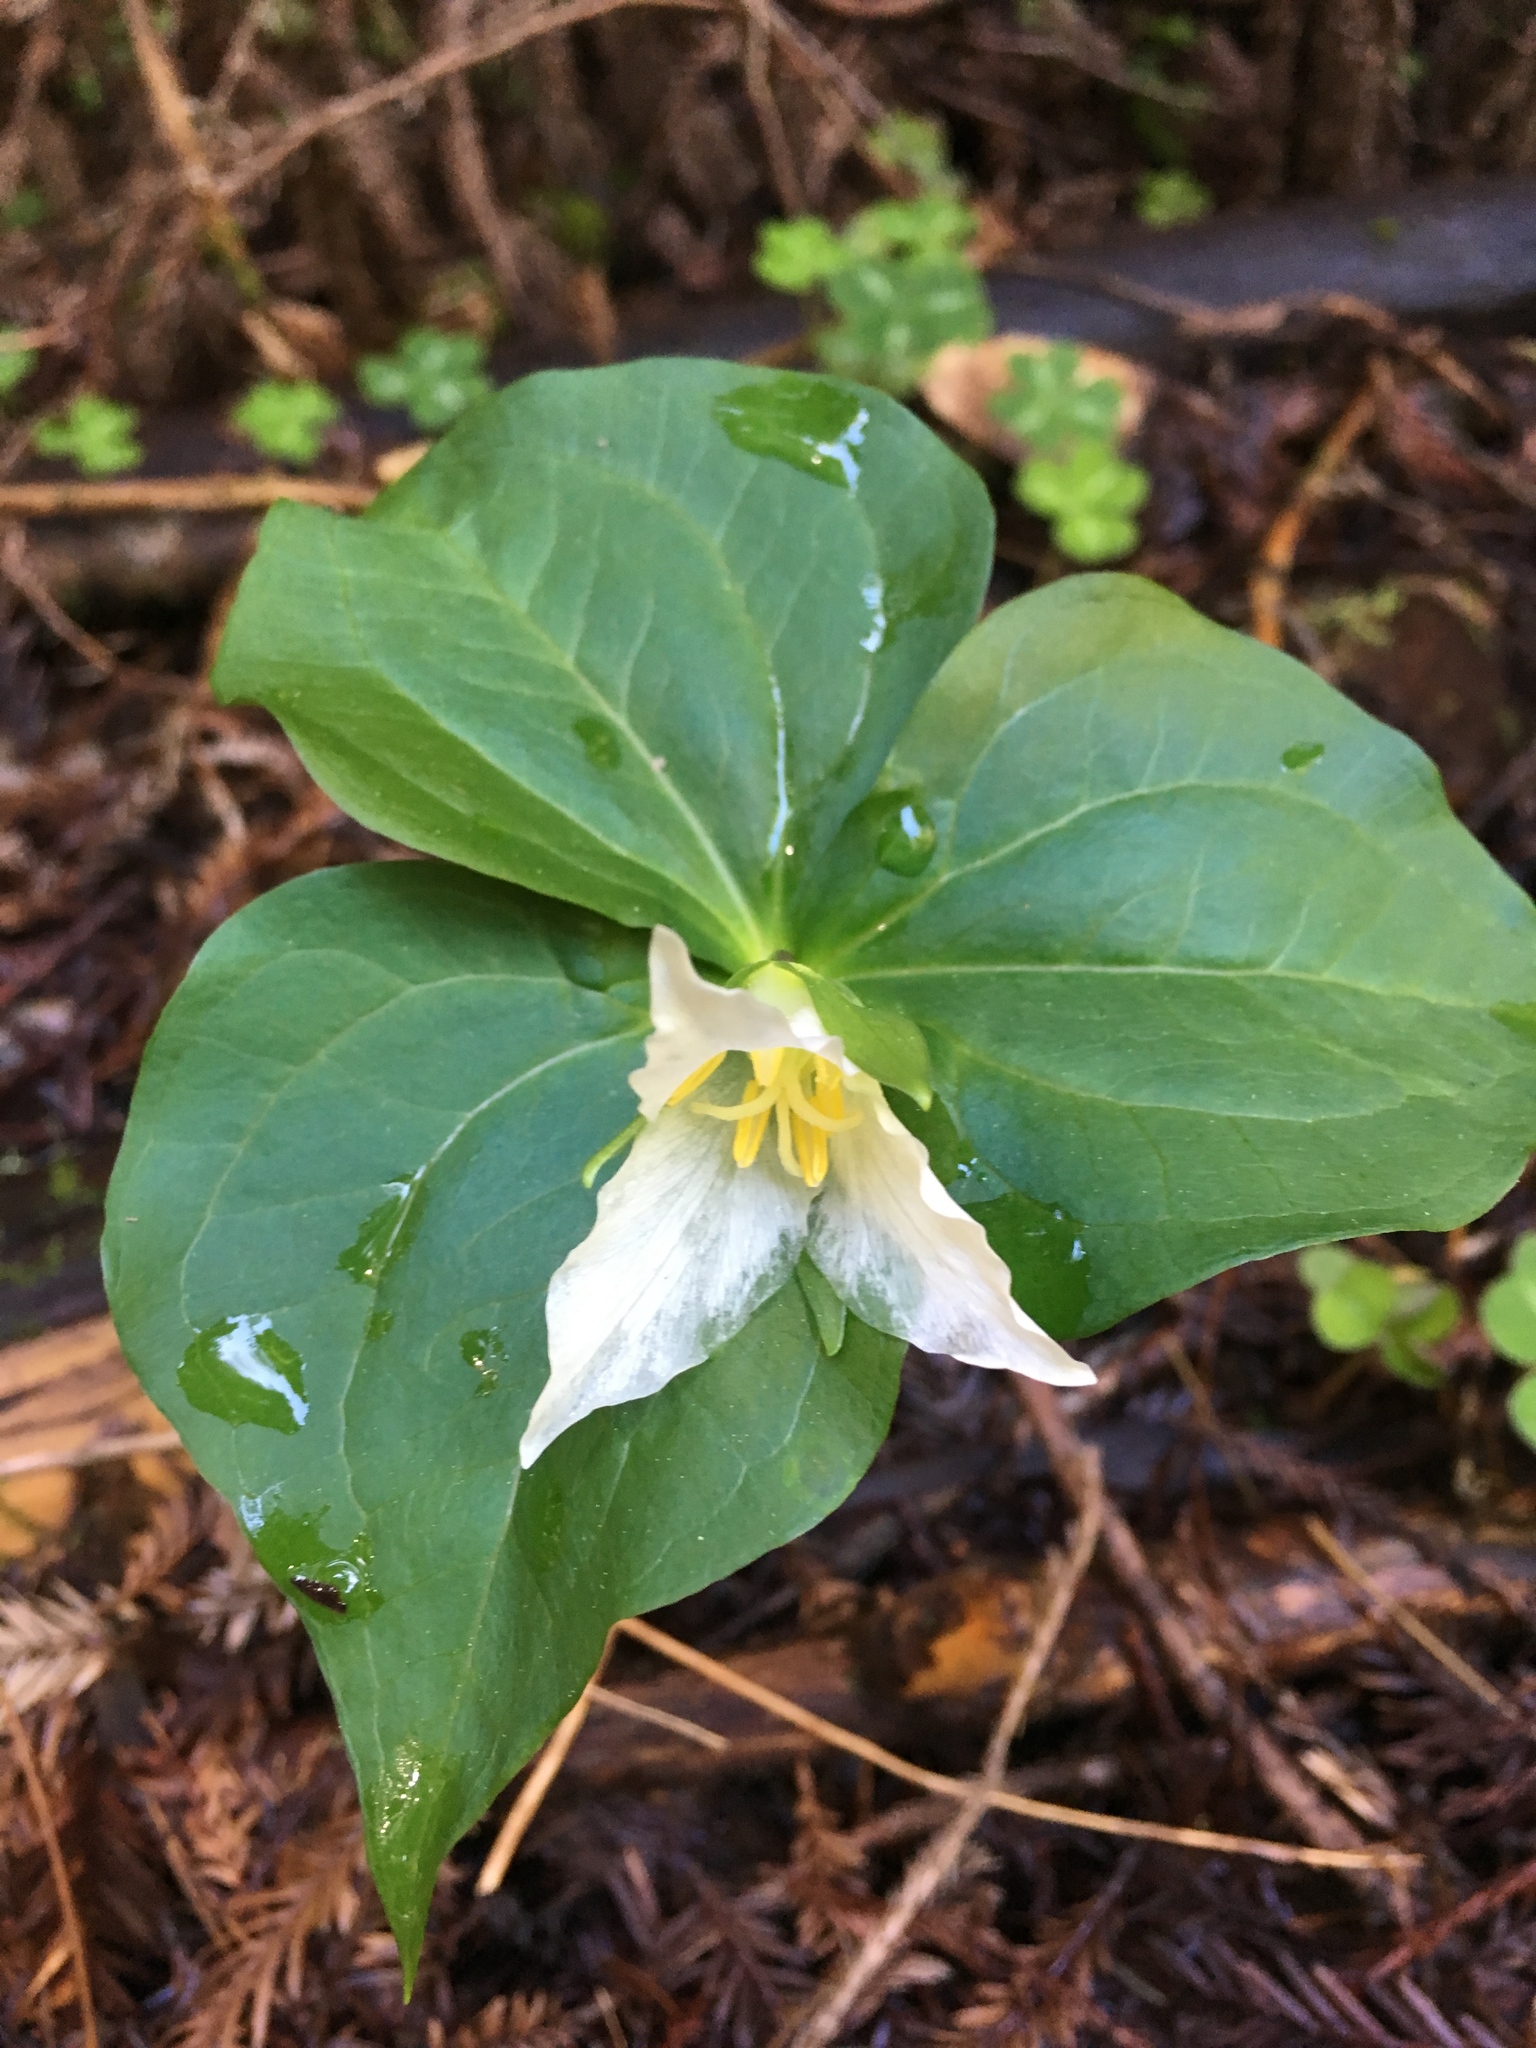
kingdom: Plantae
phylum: Tracheophyta
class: Liliopsida
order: Liliales
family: Melanthiaceae
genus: Trillium
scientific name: Trillium ovatum
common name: Pacific trillium
